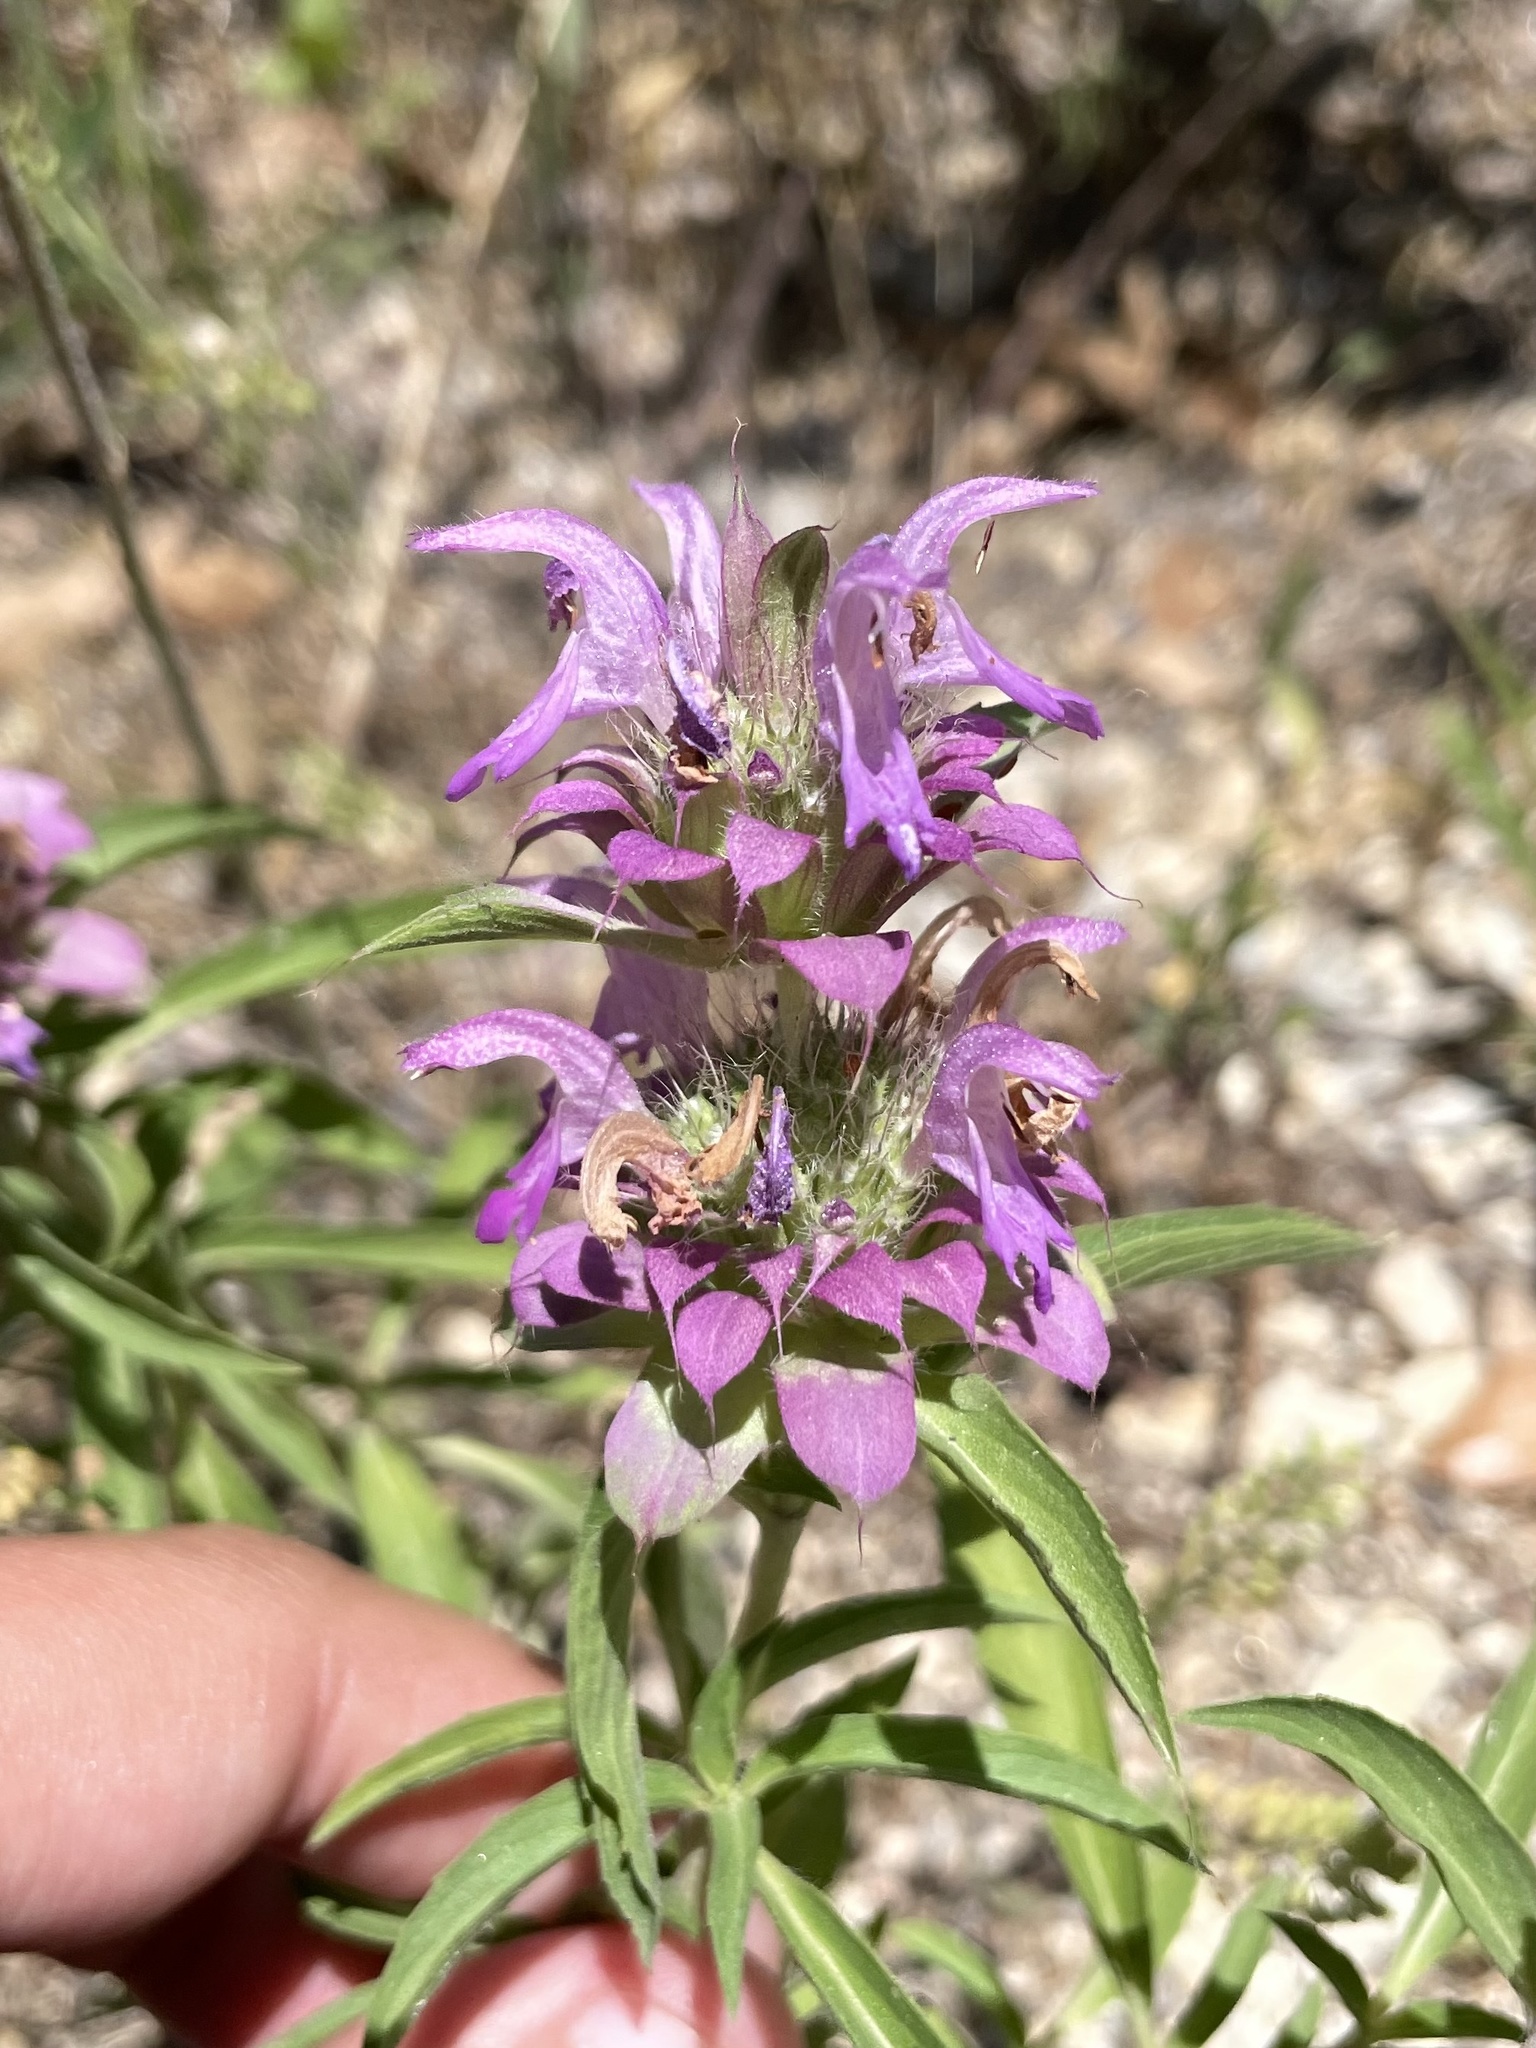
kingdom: Plantae
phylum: Tracheophyta
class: Magnoliopsida
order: Lamiales
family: Lamiaceae
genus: Monarda
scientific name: Monarda citriodora
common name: Lemon beebalm
